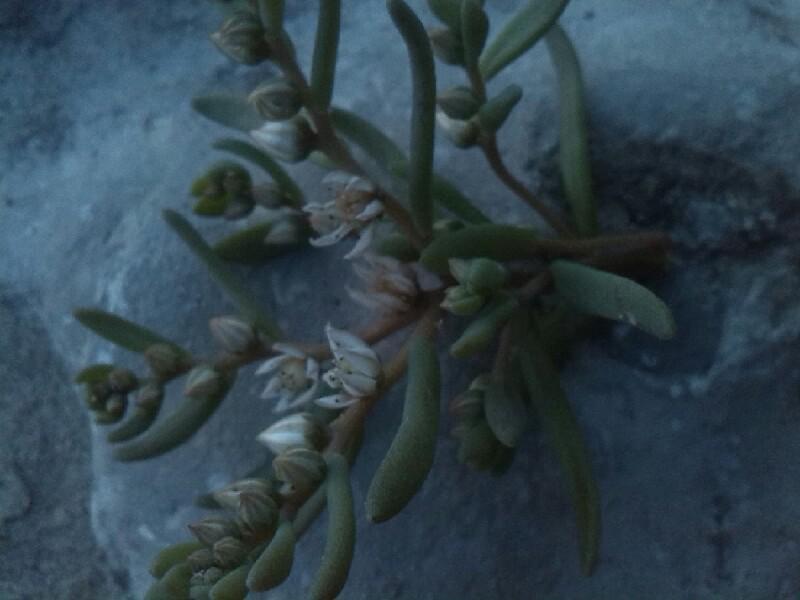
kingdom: Plantae
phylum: Tracheophyta
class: Magnoliopsida
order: Saxifragales
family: Crassulaceae
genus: Sedum
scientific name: Sedum hispanicum
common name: Spanish stonecrop
